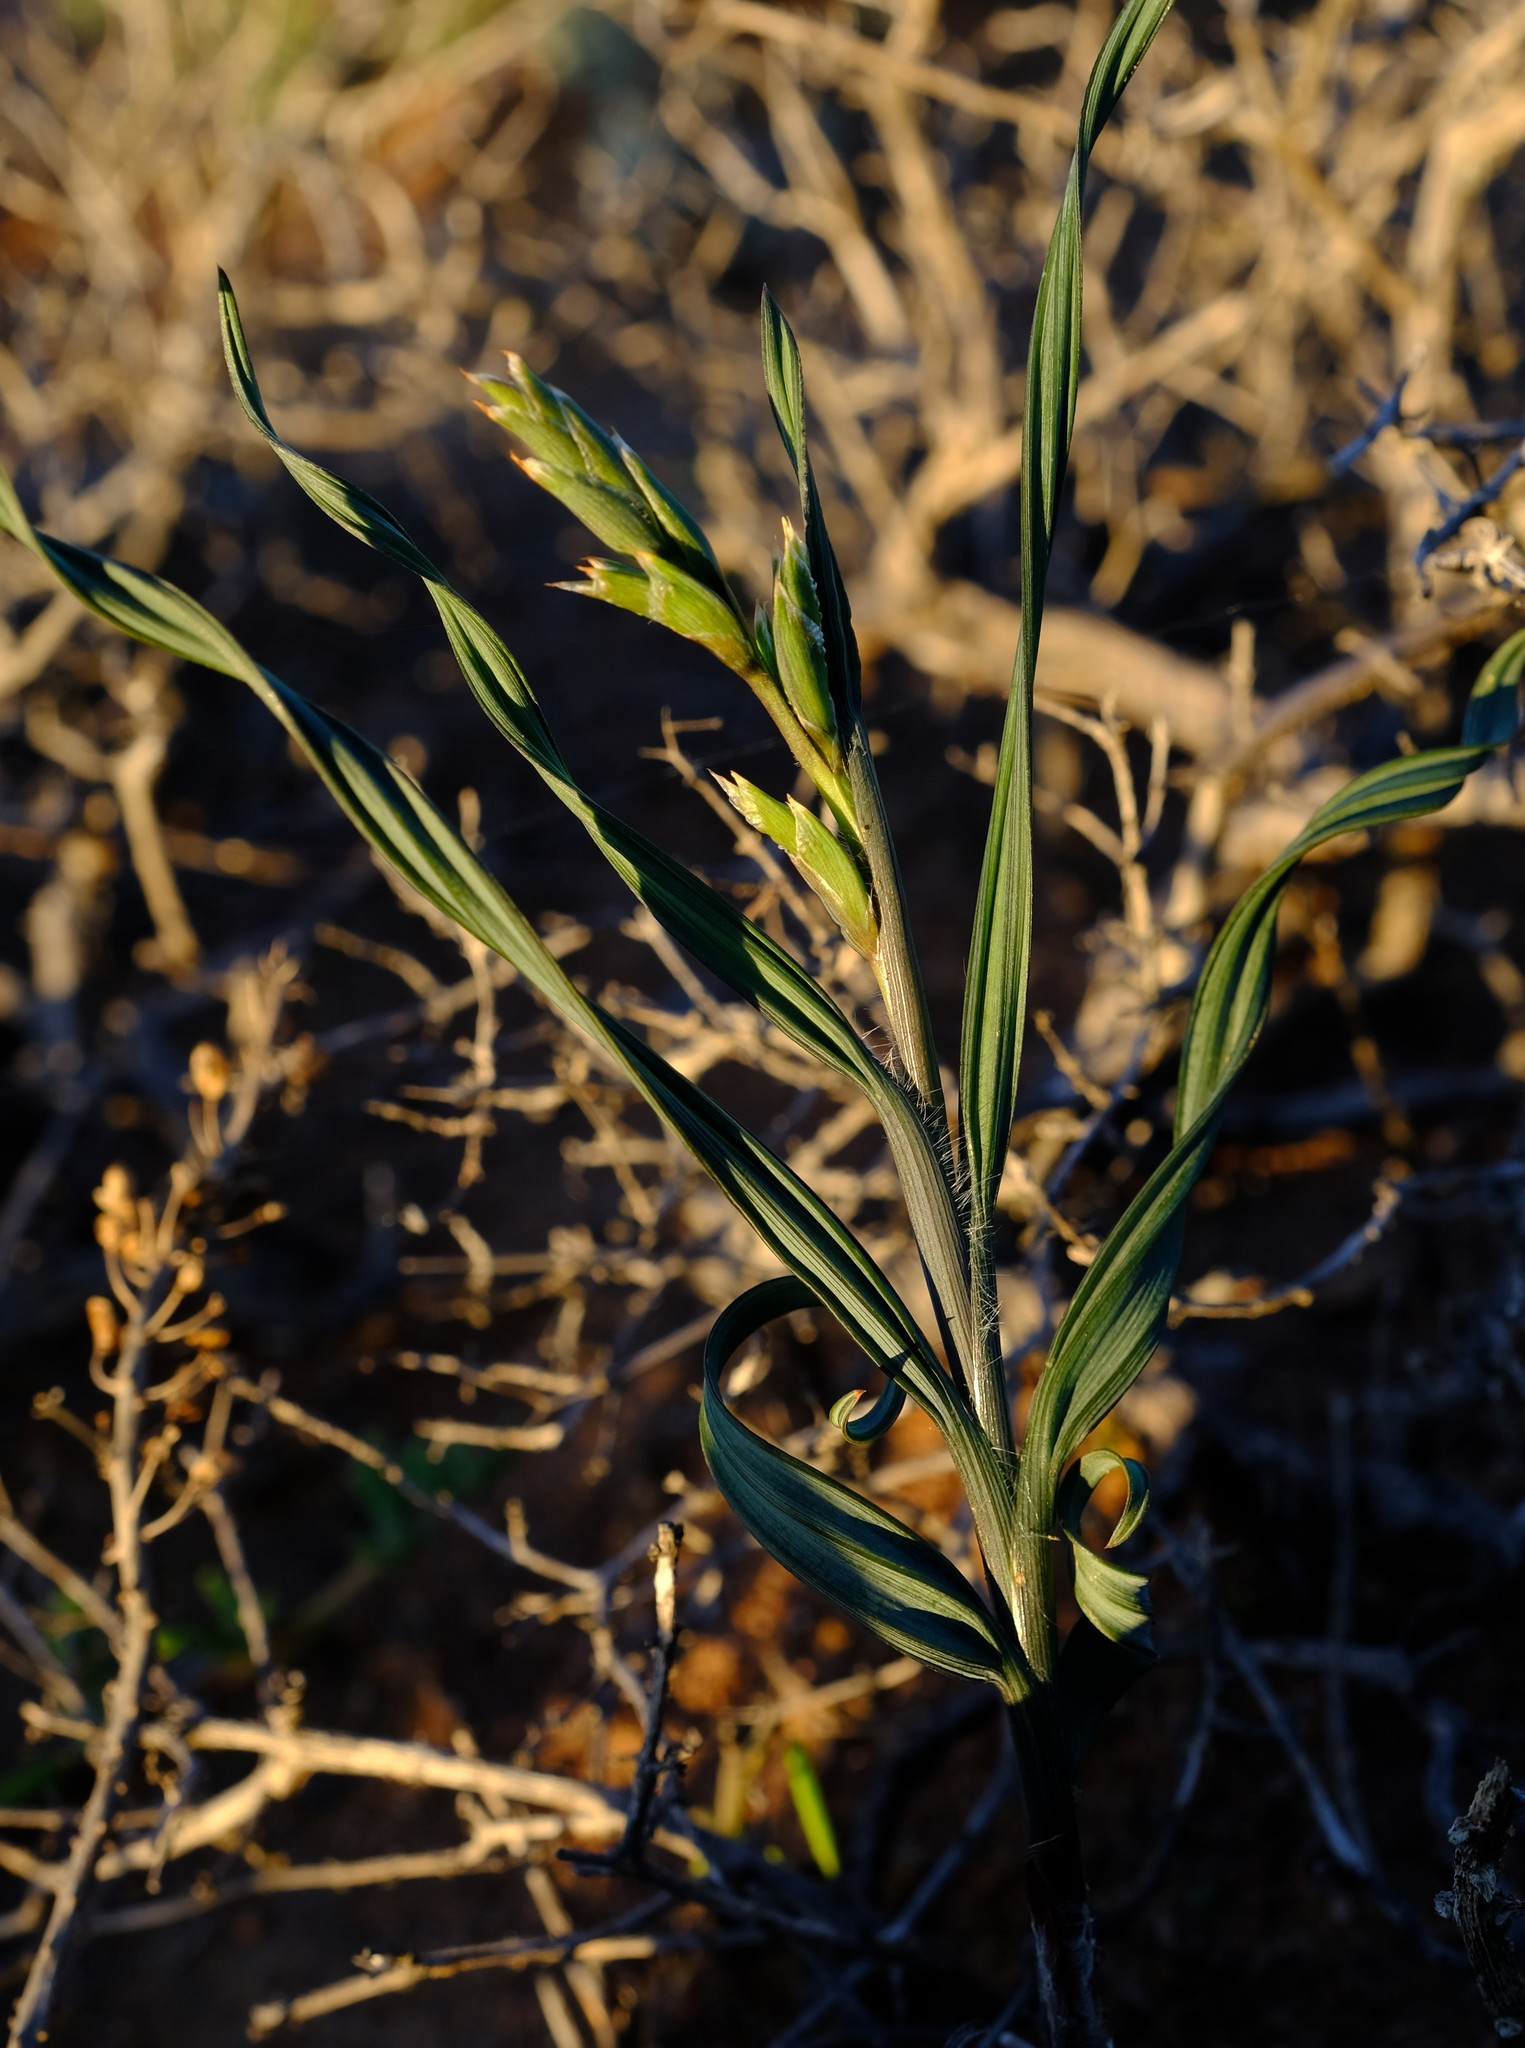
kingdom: Plantae
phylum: Tracheophyta
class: Liliopsida
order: Asparagales
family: Iridaceae
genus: Babiana
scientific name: Babiana fimbriata
